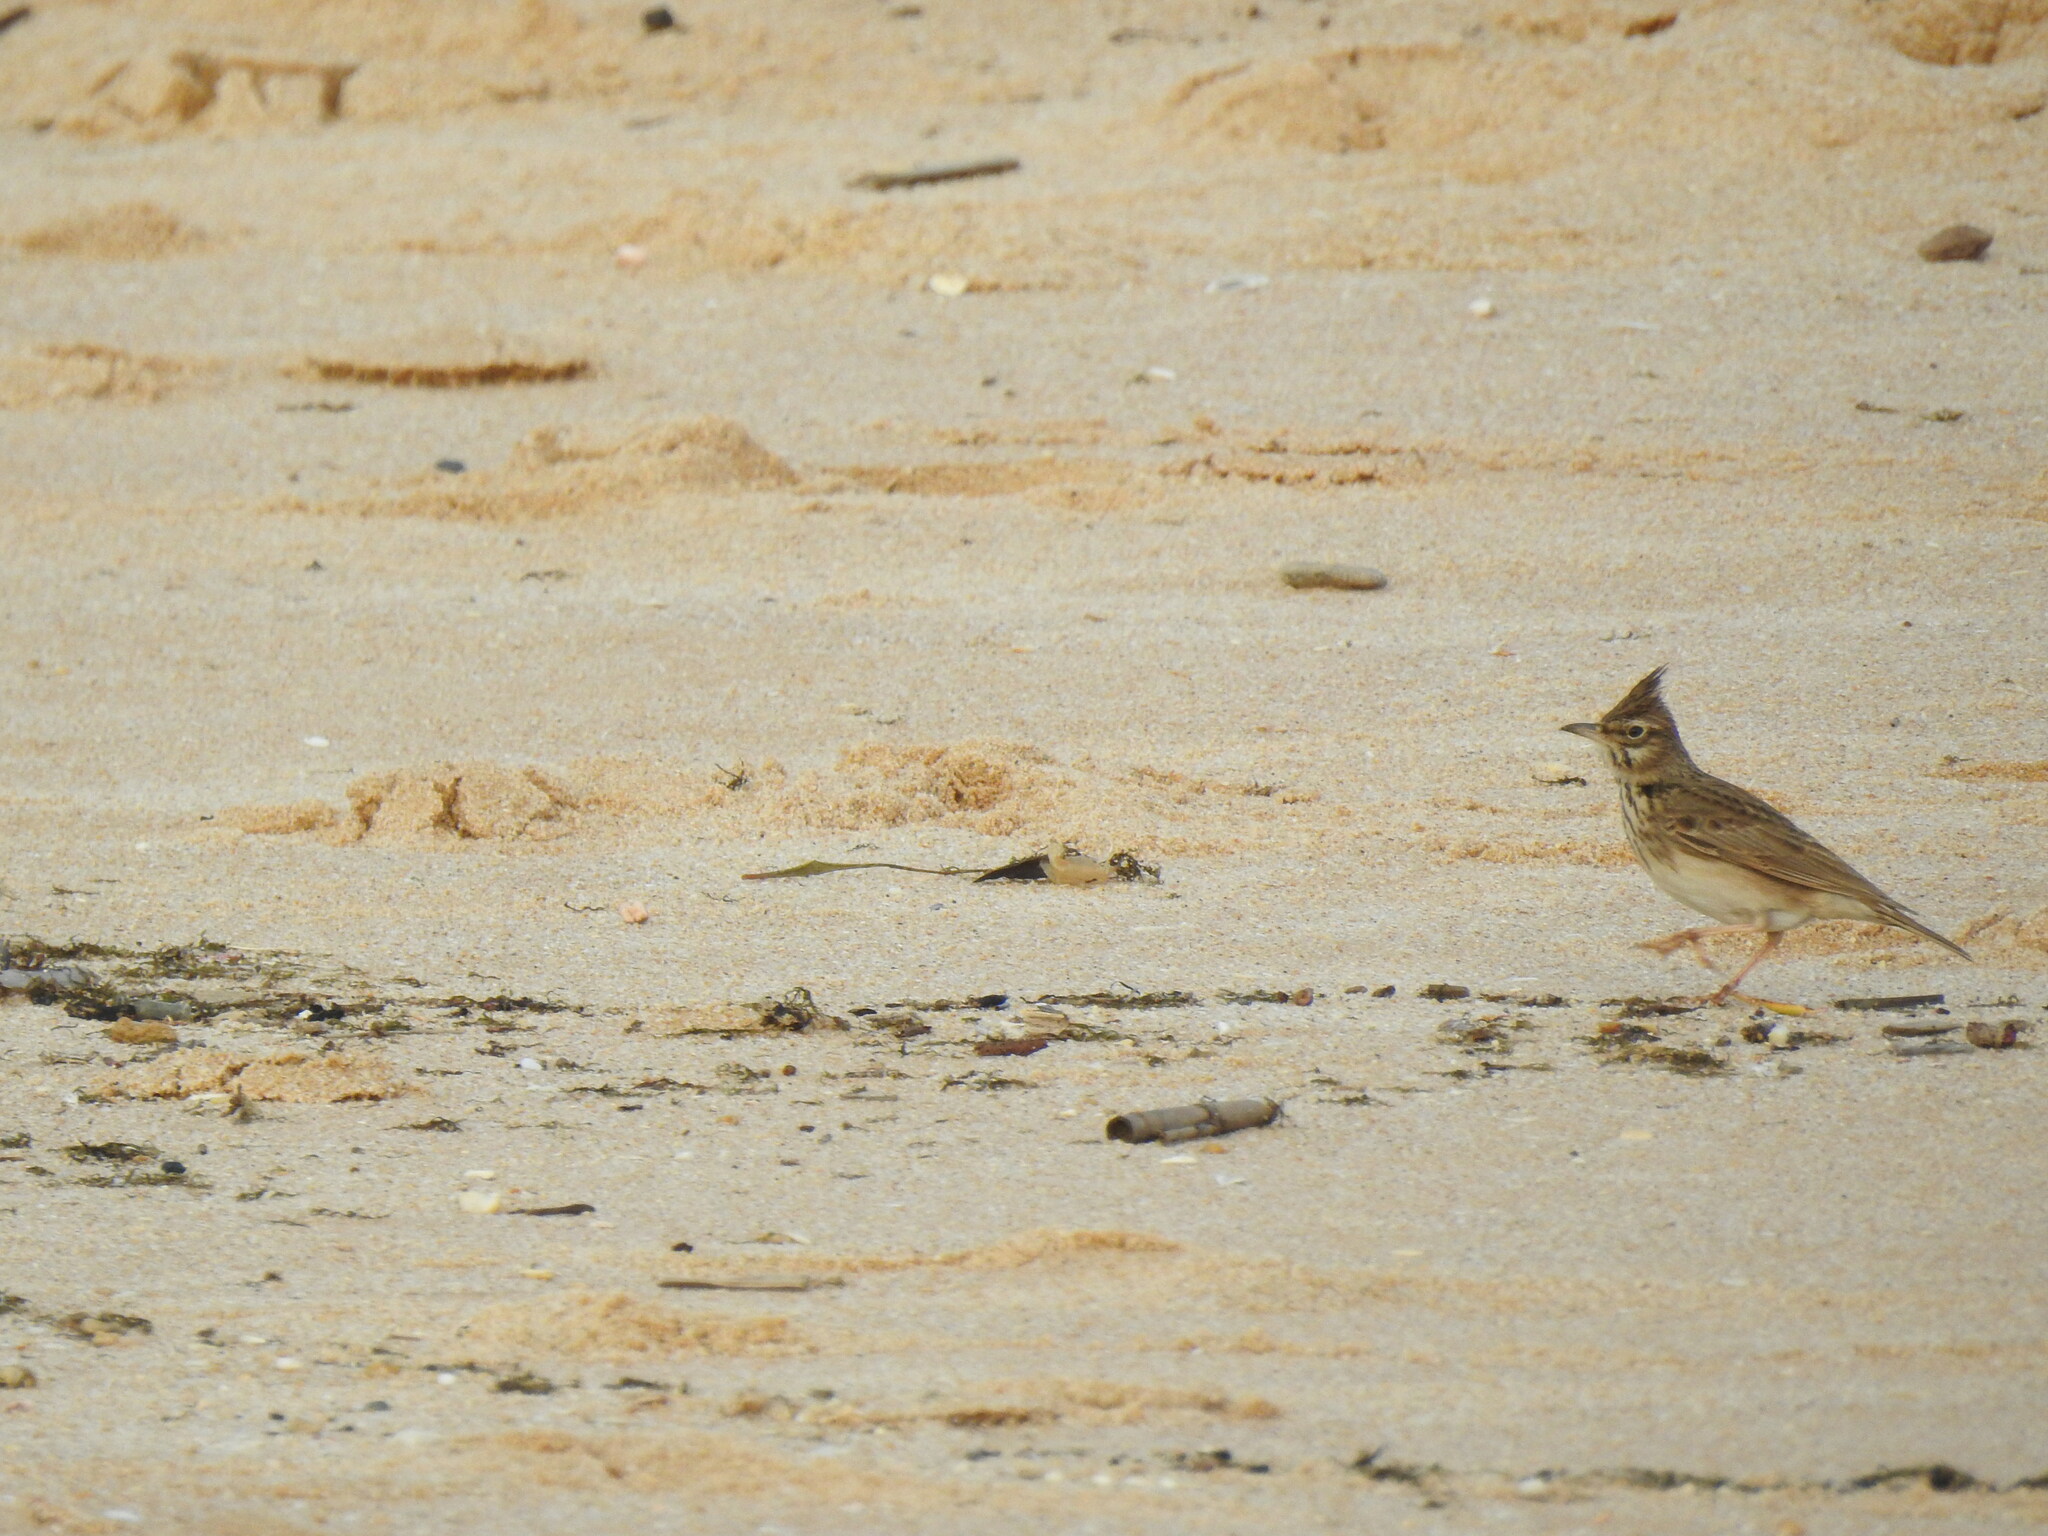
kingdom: Animalia
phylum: Chordata
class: Aves
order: Passeriformes
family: Alaudidae
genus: Galerida
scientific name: Galerida cristata
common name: Crested lark
